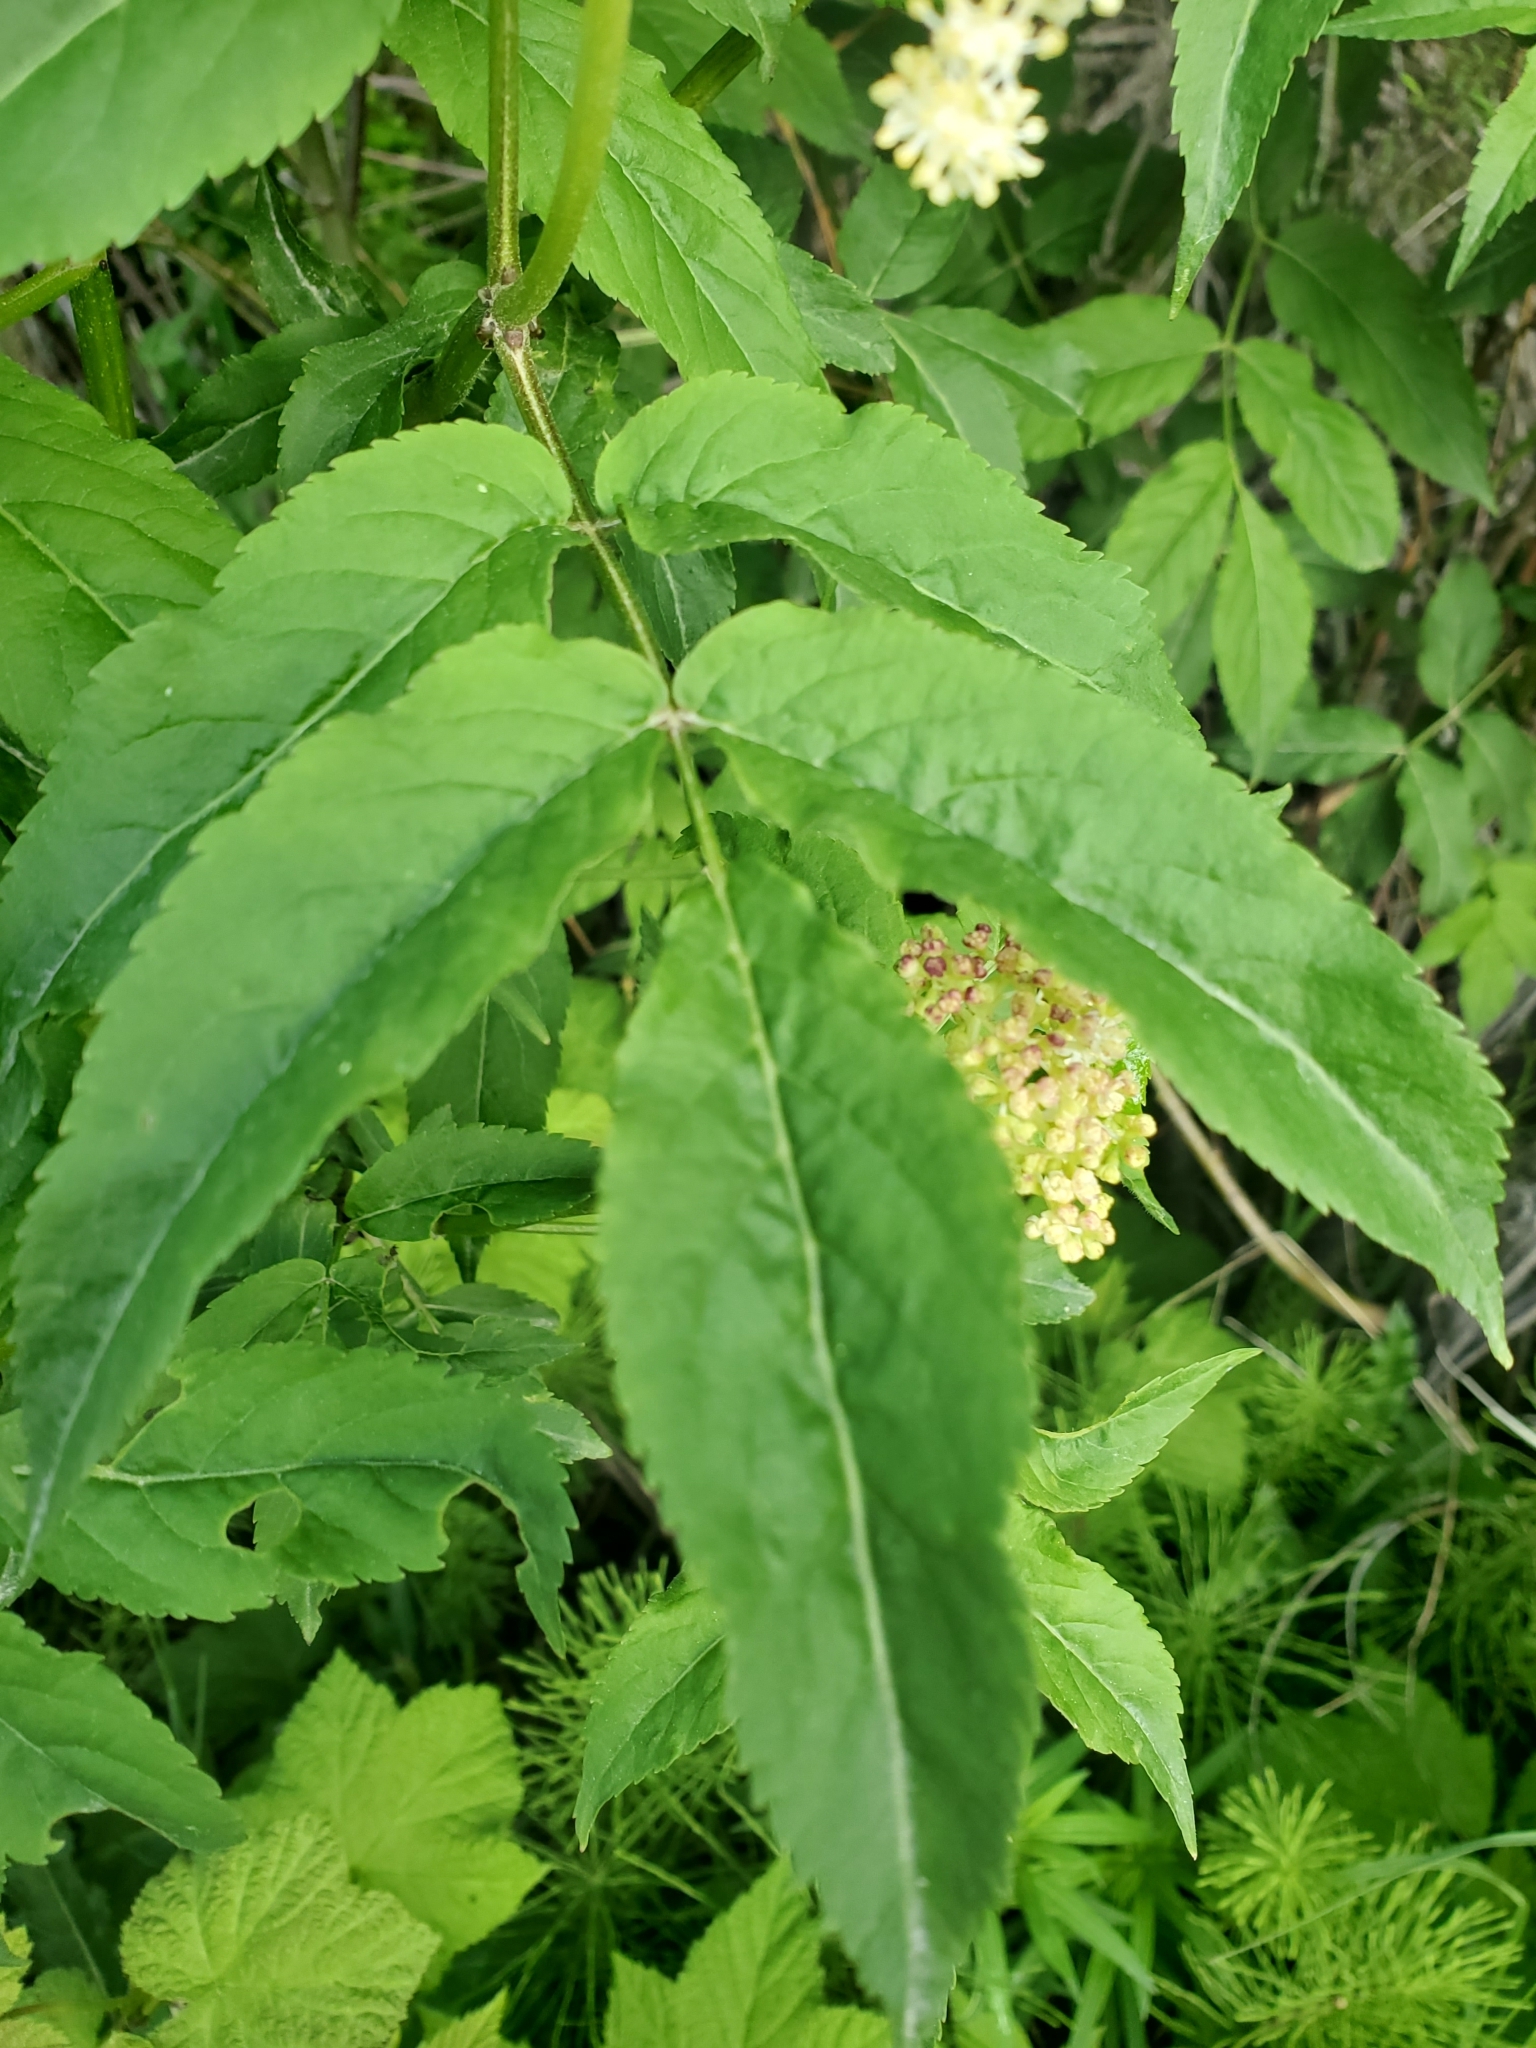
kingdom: Plantae
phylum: Tracheophyta
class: Magnoliopsida
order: Dipsacales
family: Viburnaceae
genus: Sambucus
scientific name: Sambucus racemosa
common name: Red-berried elder
